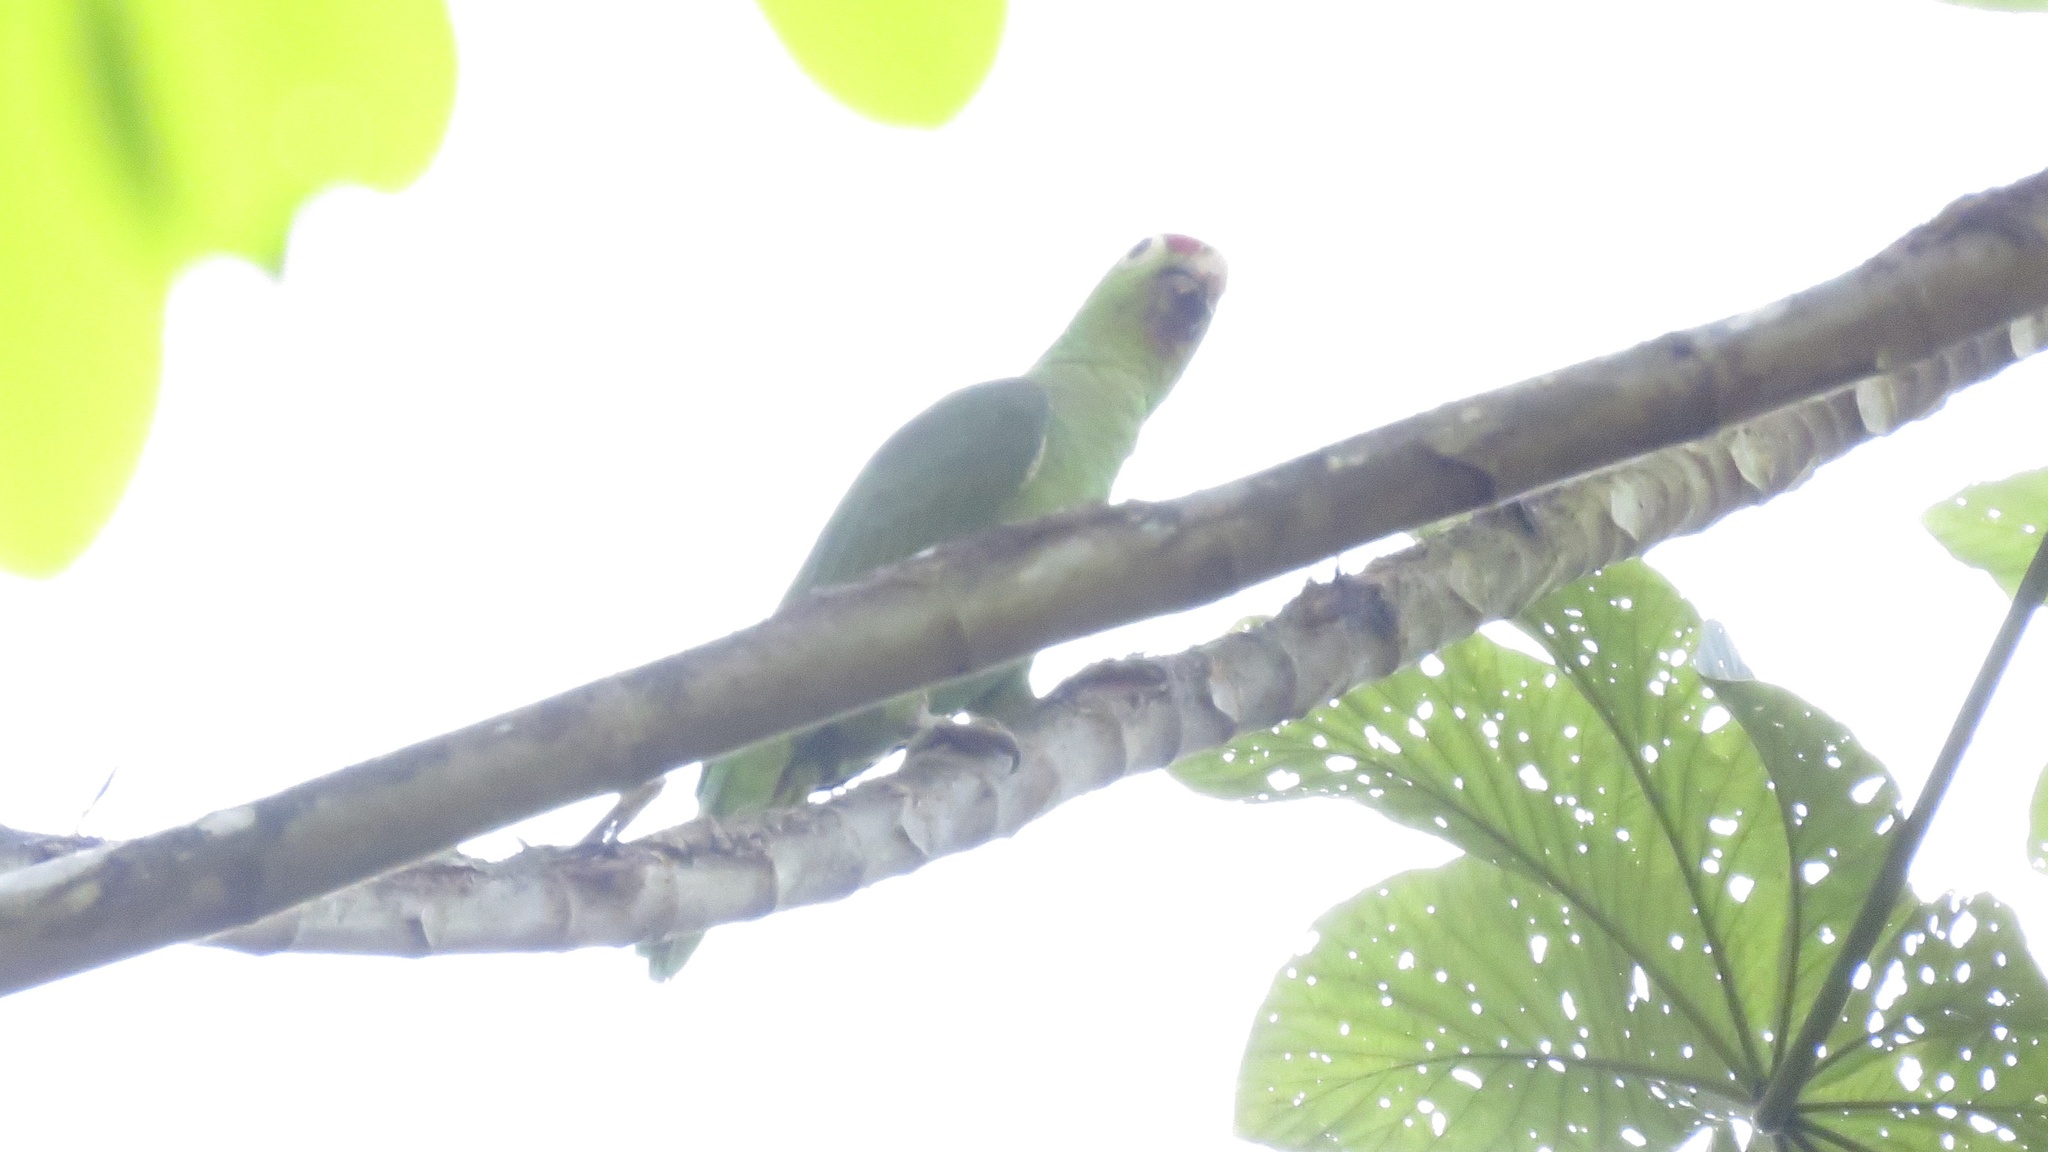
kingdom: Animalia
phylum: Chordata
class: Aves
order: Psittaciformes
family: Psittacidae
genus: Amazona
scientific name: Amazona autumnalis
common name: Red-lored amazon
